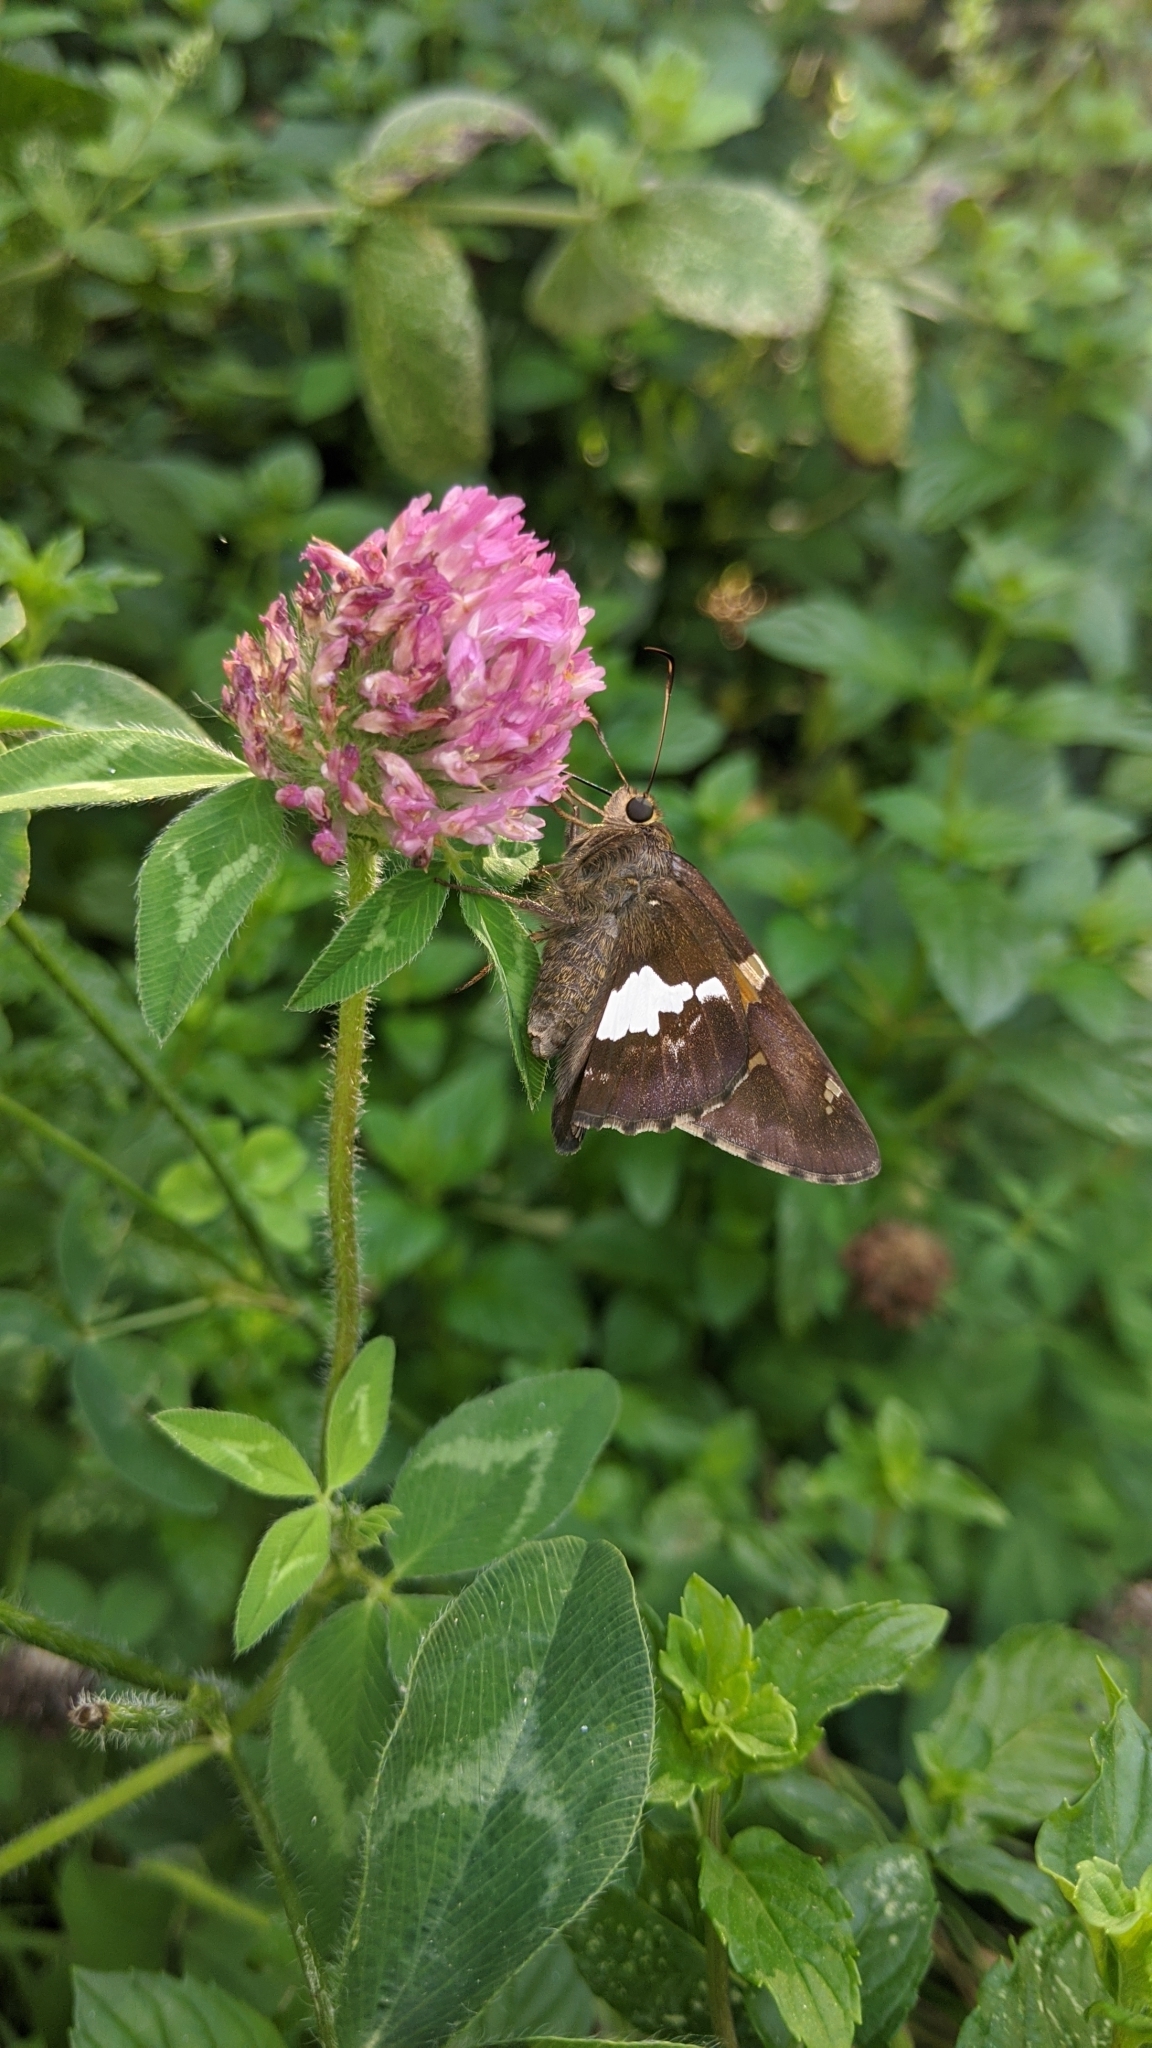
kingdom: Animalia
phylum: Arthropoda
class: Insecta
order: Lepidoptera
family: Hesperiidae
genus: Epargyreus
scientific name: Epargyreus clarus
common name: Silver-spotted skipper
